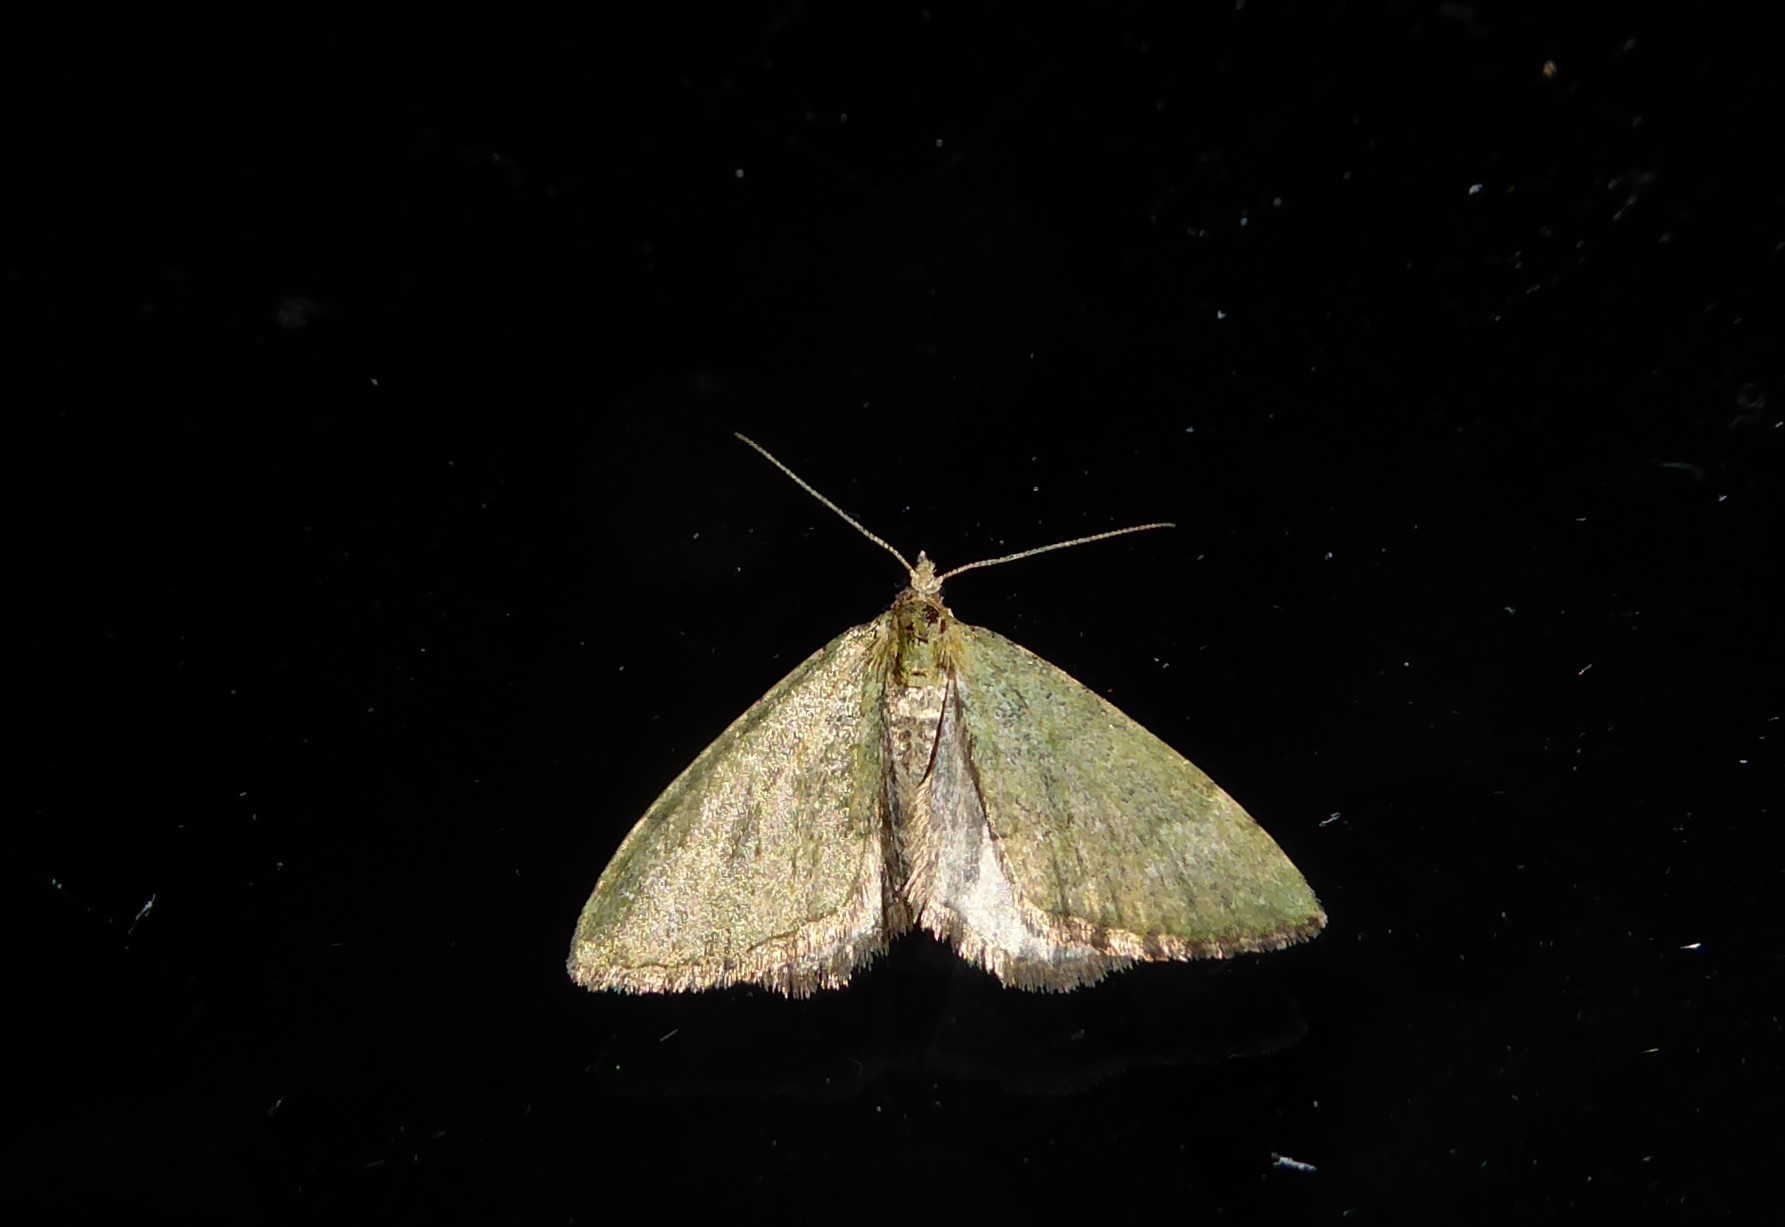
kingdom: Animalia
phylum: Arthropoda
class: Insecta
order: Lepidoptera
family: Geometridae
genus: Epyaxa
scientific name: Epyaxa rosearia
